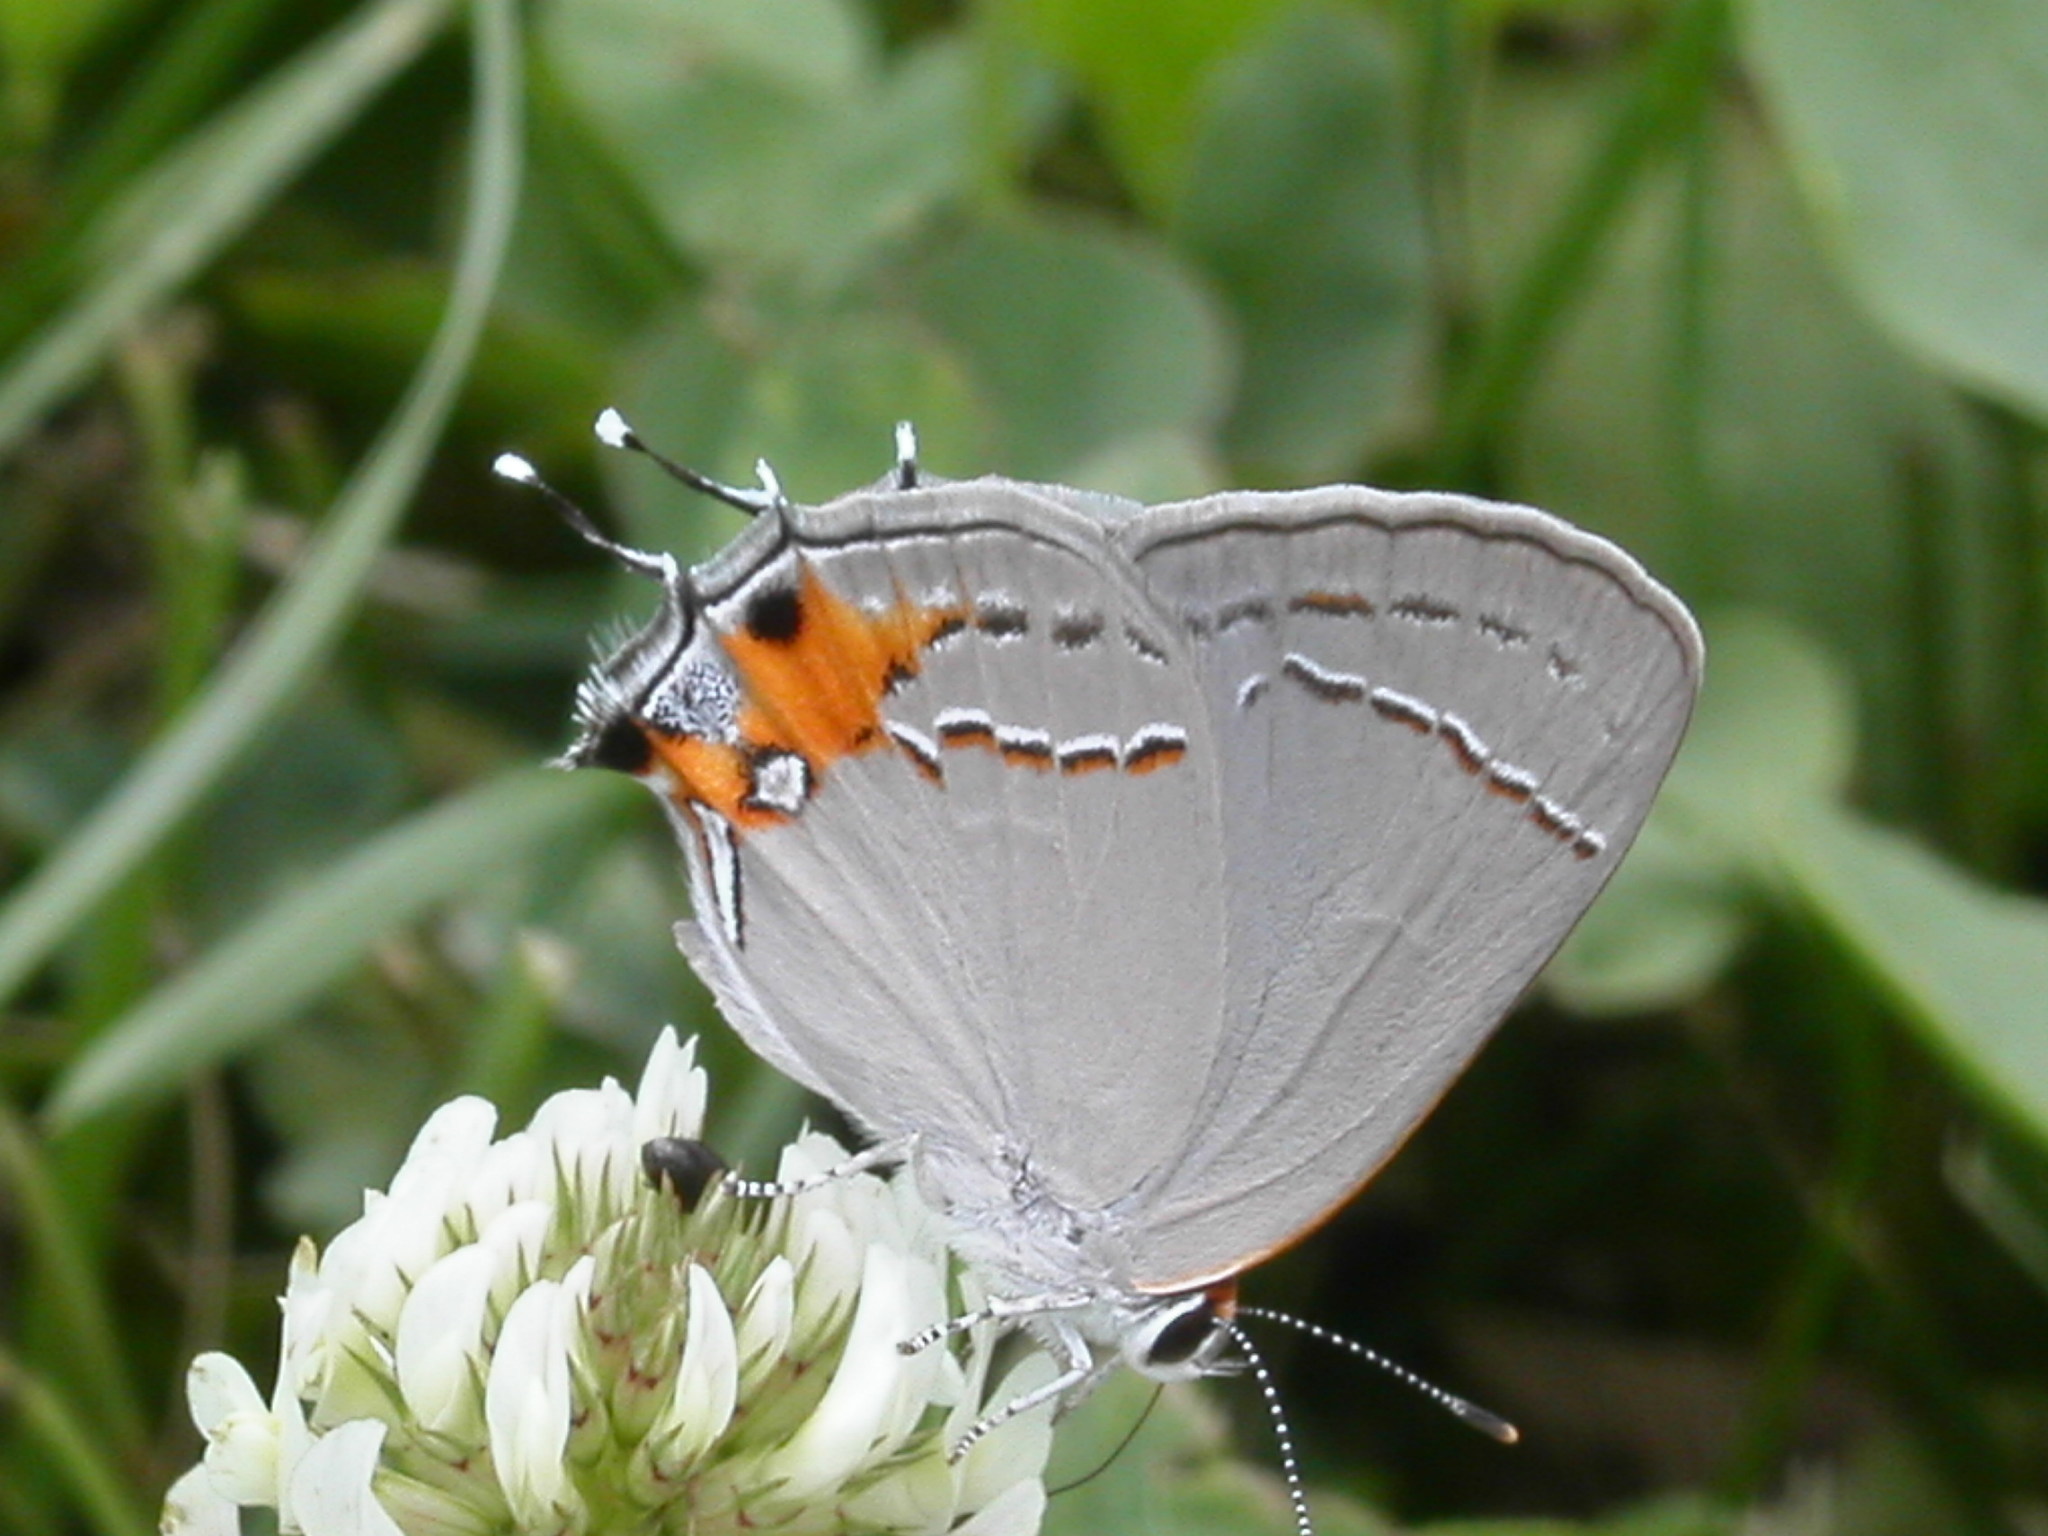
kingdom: Animalia
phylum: Arthropoda
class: Insecta
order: Lepidoptera
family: Lycaenidae
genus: Strymon
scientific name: Strymon melinus
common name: Gray hairstreak
